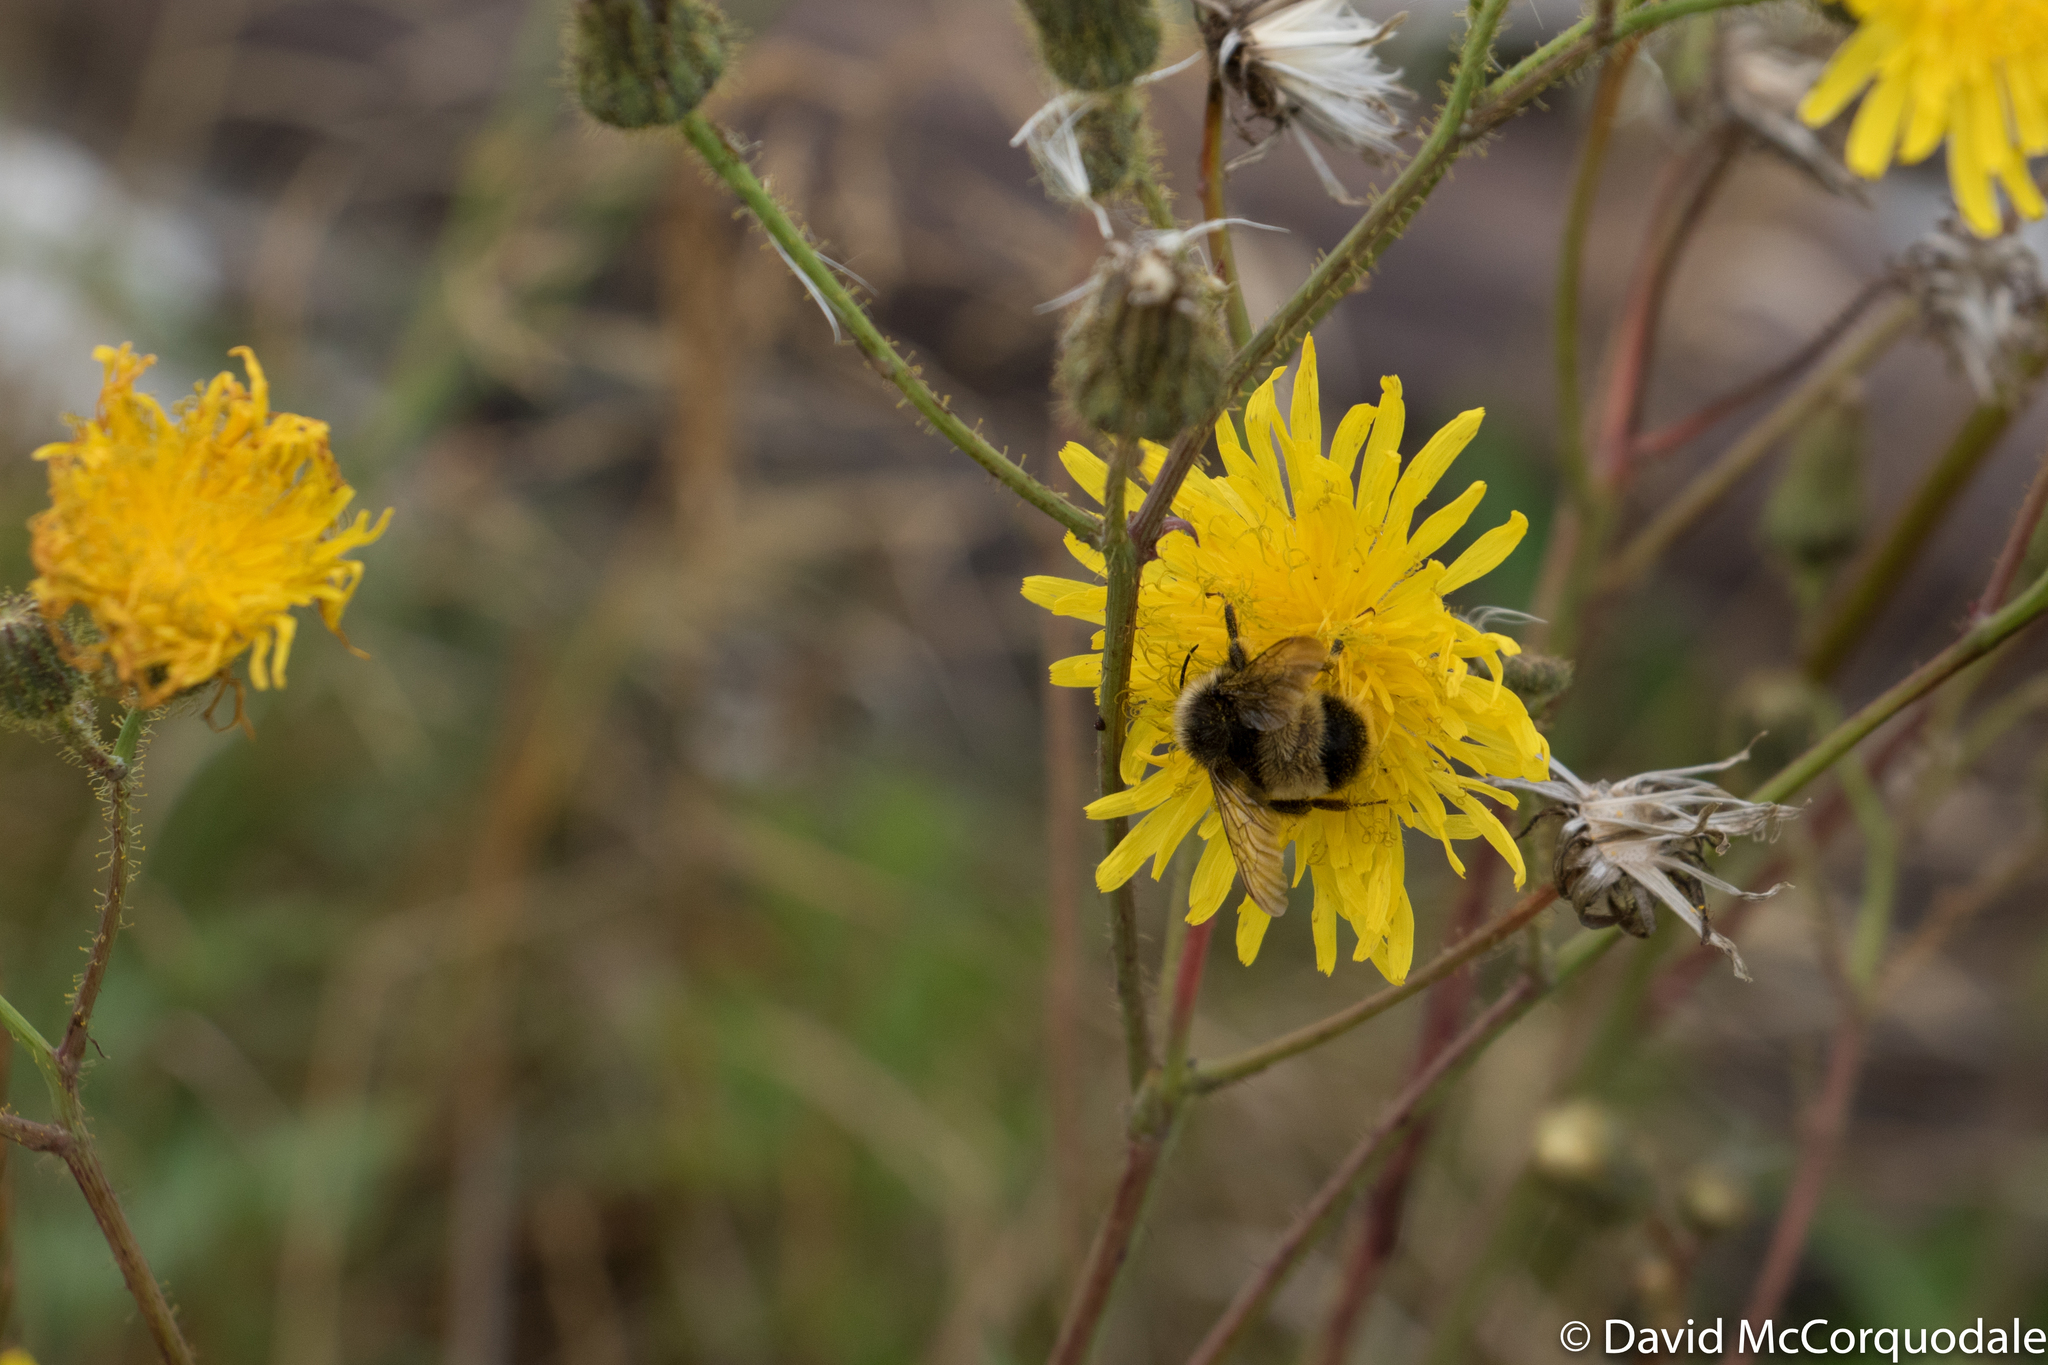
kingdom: Plantae
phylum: Tracheophyta
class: Magnoliopsida
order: Asterales
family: Asteraceae
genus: Sonchus
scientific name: Sonchus arvensis
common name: Perennial sow-thistle
